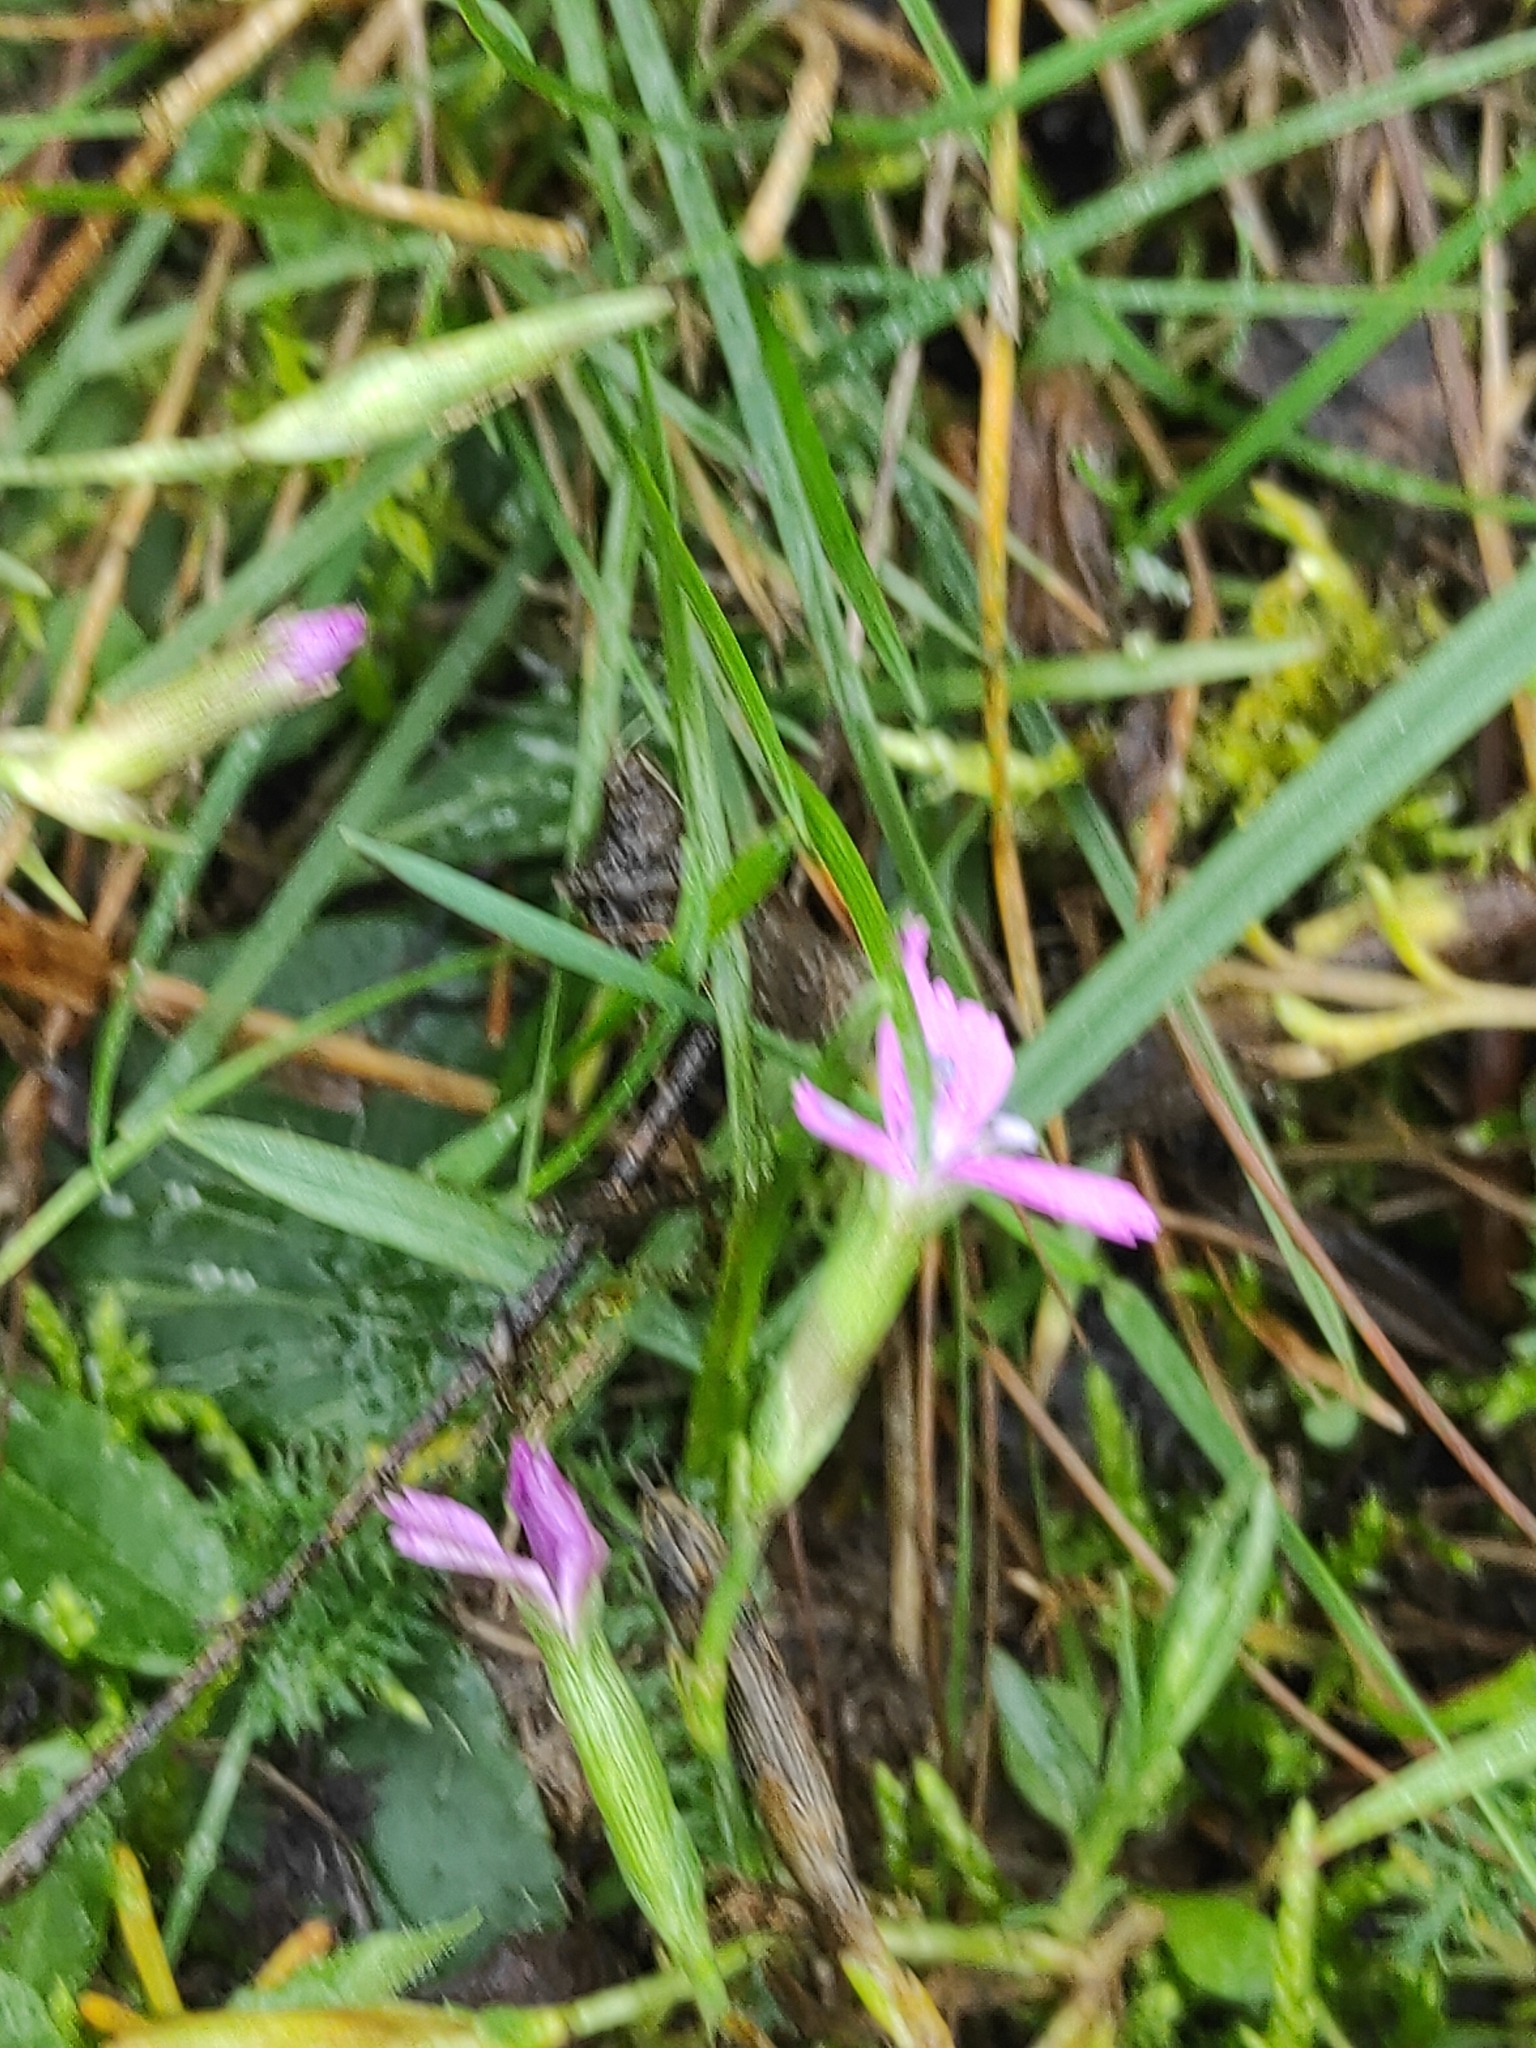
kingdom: Plantae
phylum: Tracheophyta
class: Magnoliopsida
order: Caryophyllales
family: Caryophyllaceae
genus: Dianthus
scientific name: Dianthus deltoides
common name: Maiden pink
